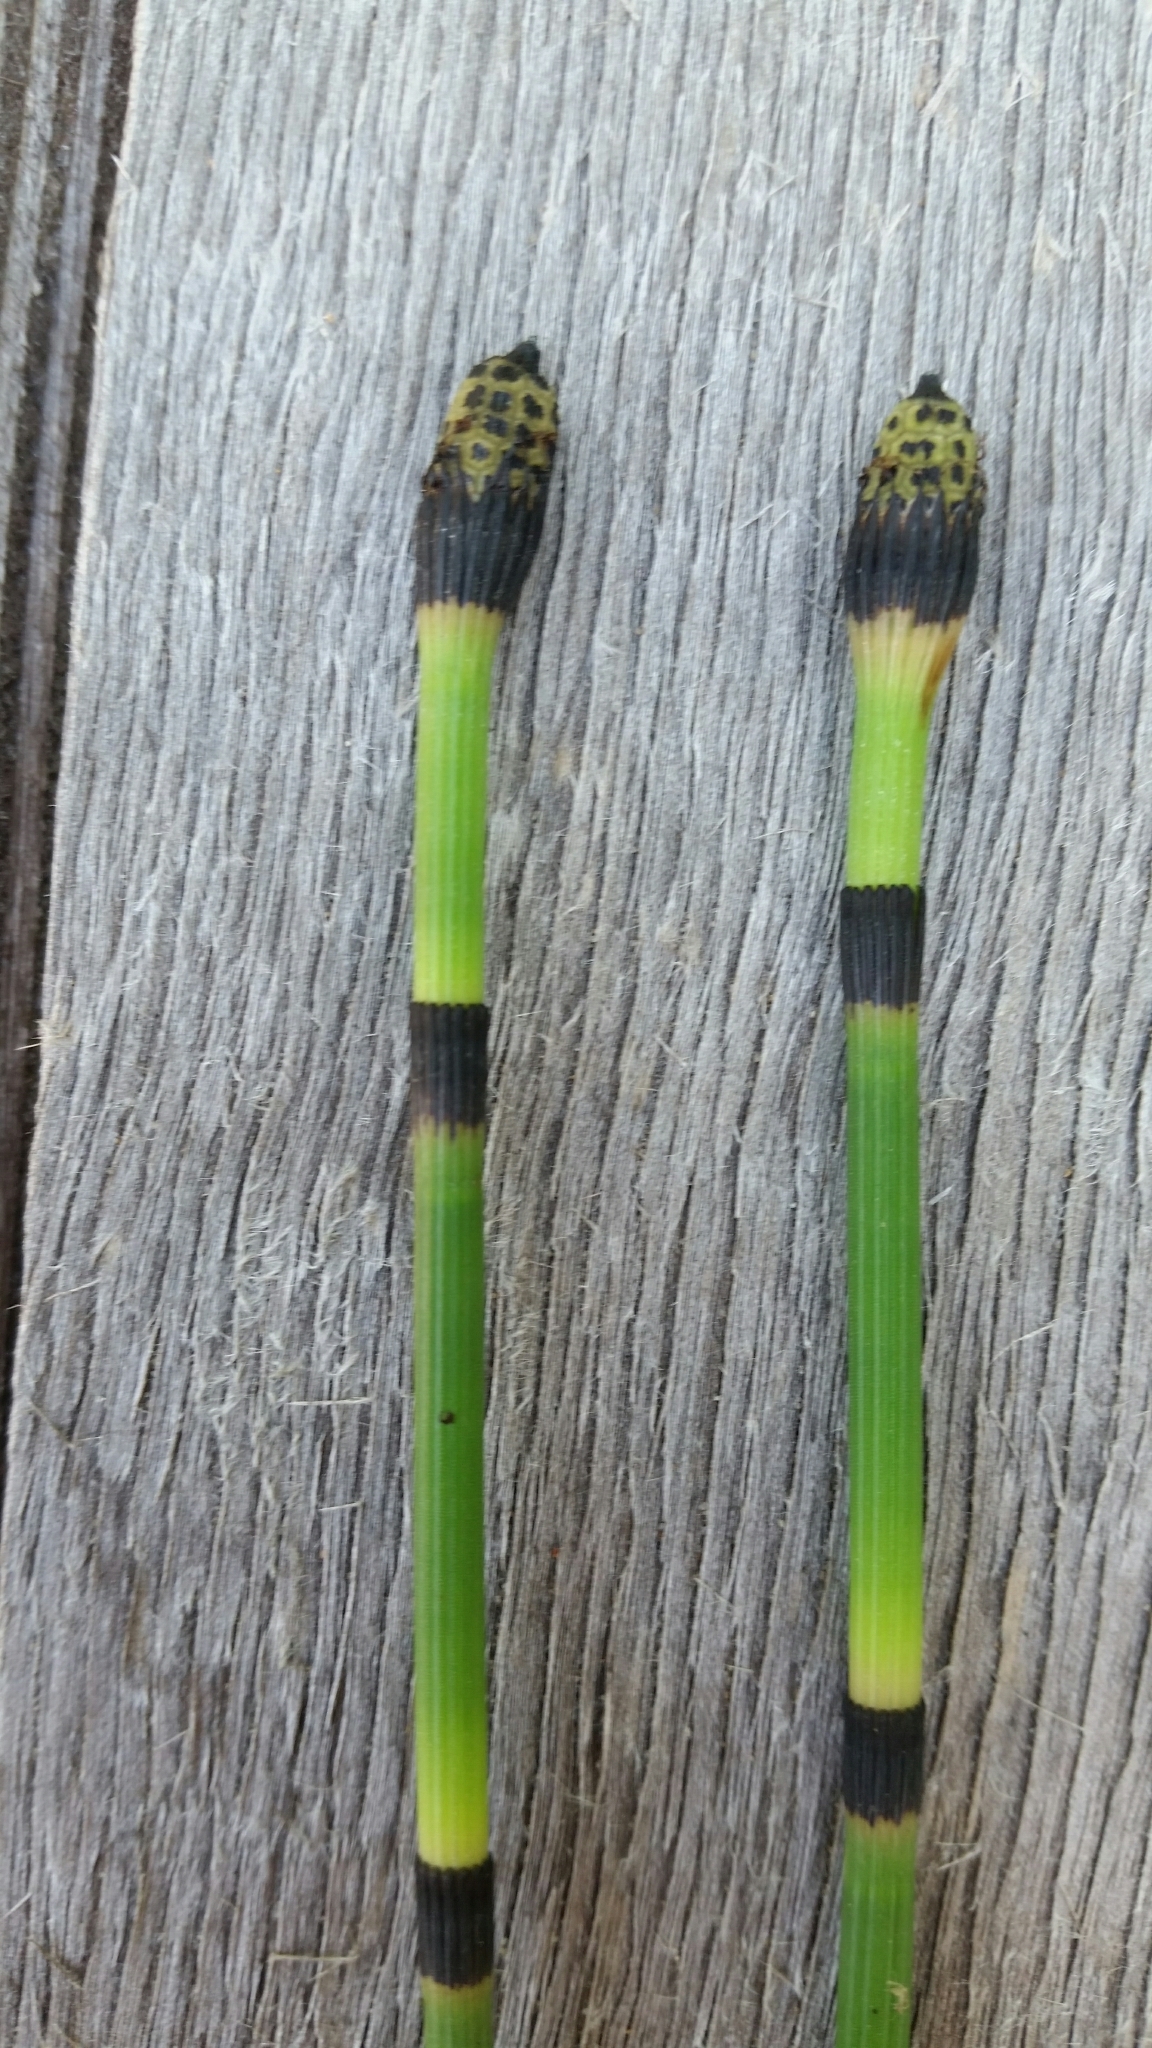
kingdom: Plantae
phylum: Tracheophyta
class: Polypodiopsida
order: Equisetales
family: Equisetaceae
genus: Equisetum
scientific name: Equisetum hyemale
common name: Rough horsetail
